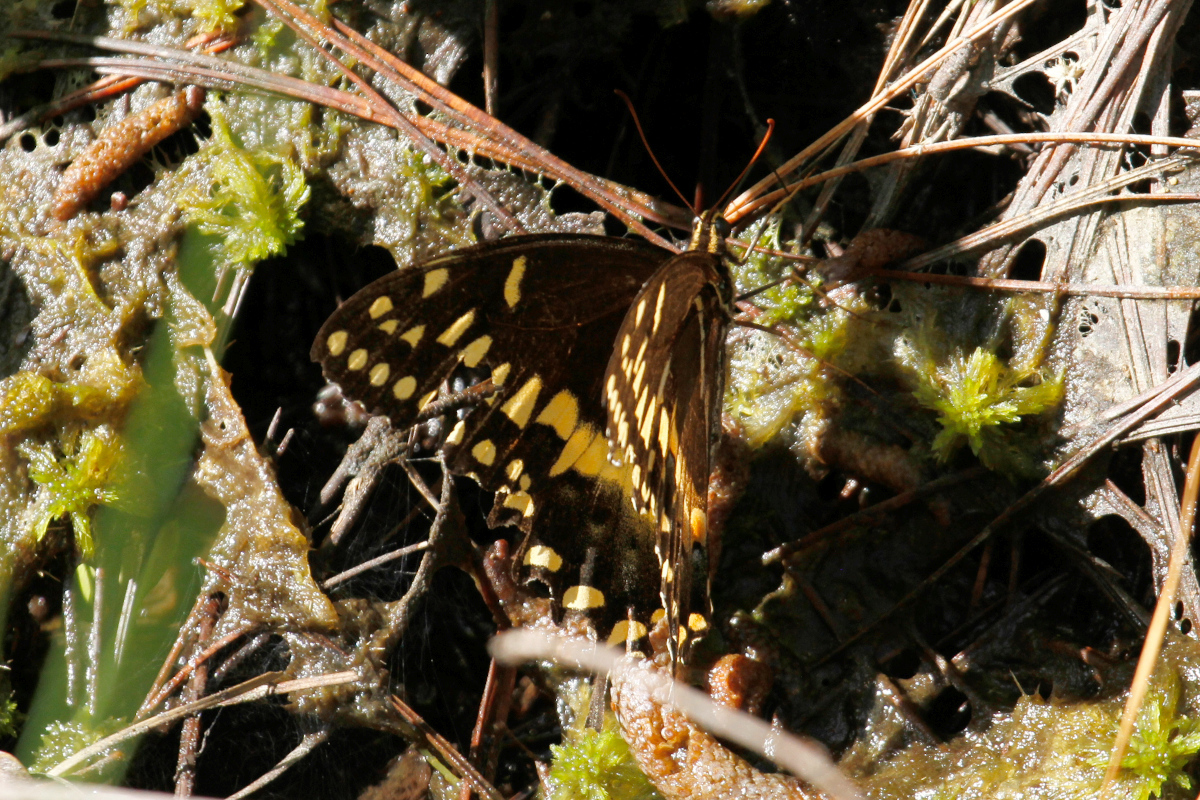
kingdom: Animalia
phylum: Arthropoda
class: Insecta
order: Lepidoptera
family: Papilionidae
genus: Papilio
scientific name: Papilio palamedes
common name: Palamedes swallowtail
